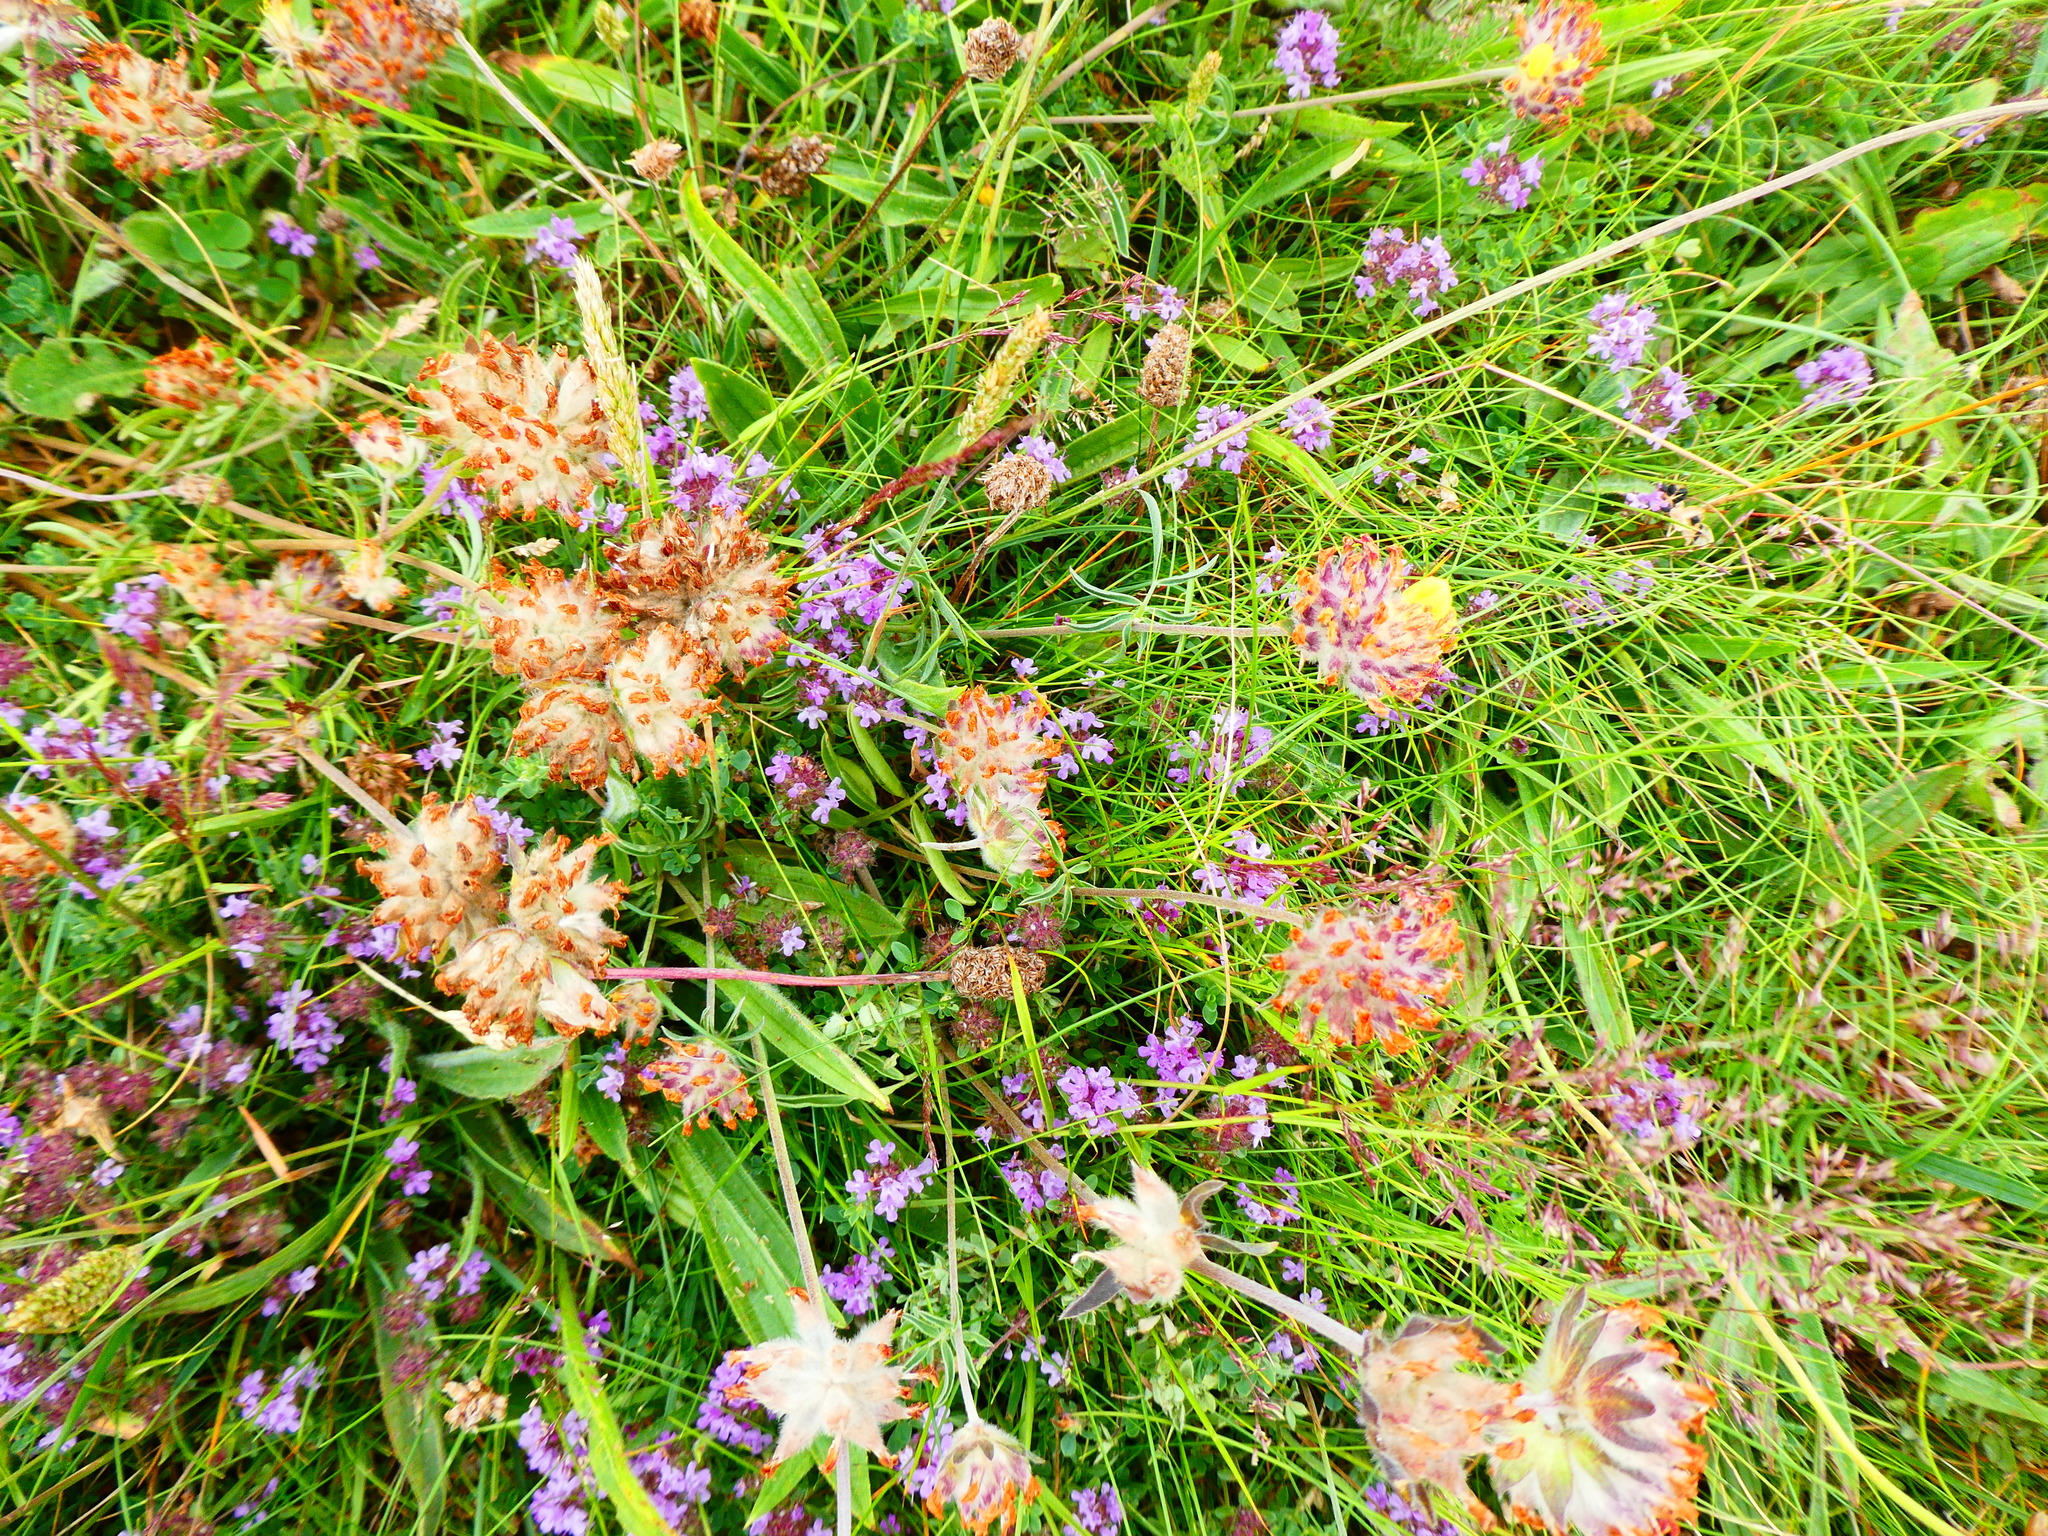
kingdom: Plantae
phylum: Tracheophyta
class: Magnoliopsida
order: Fabales
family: Fabaceae
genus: Anthyllis
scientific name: Anthyllis vulneraria
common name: Kidney vetch
